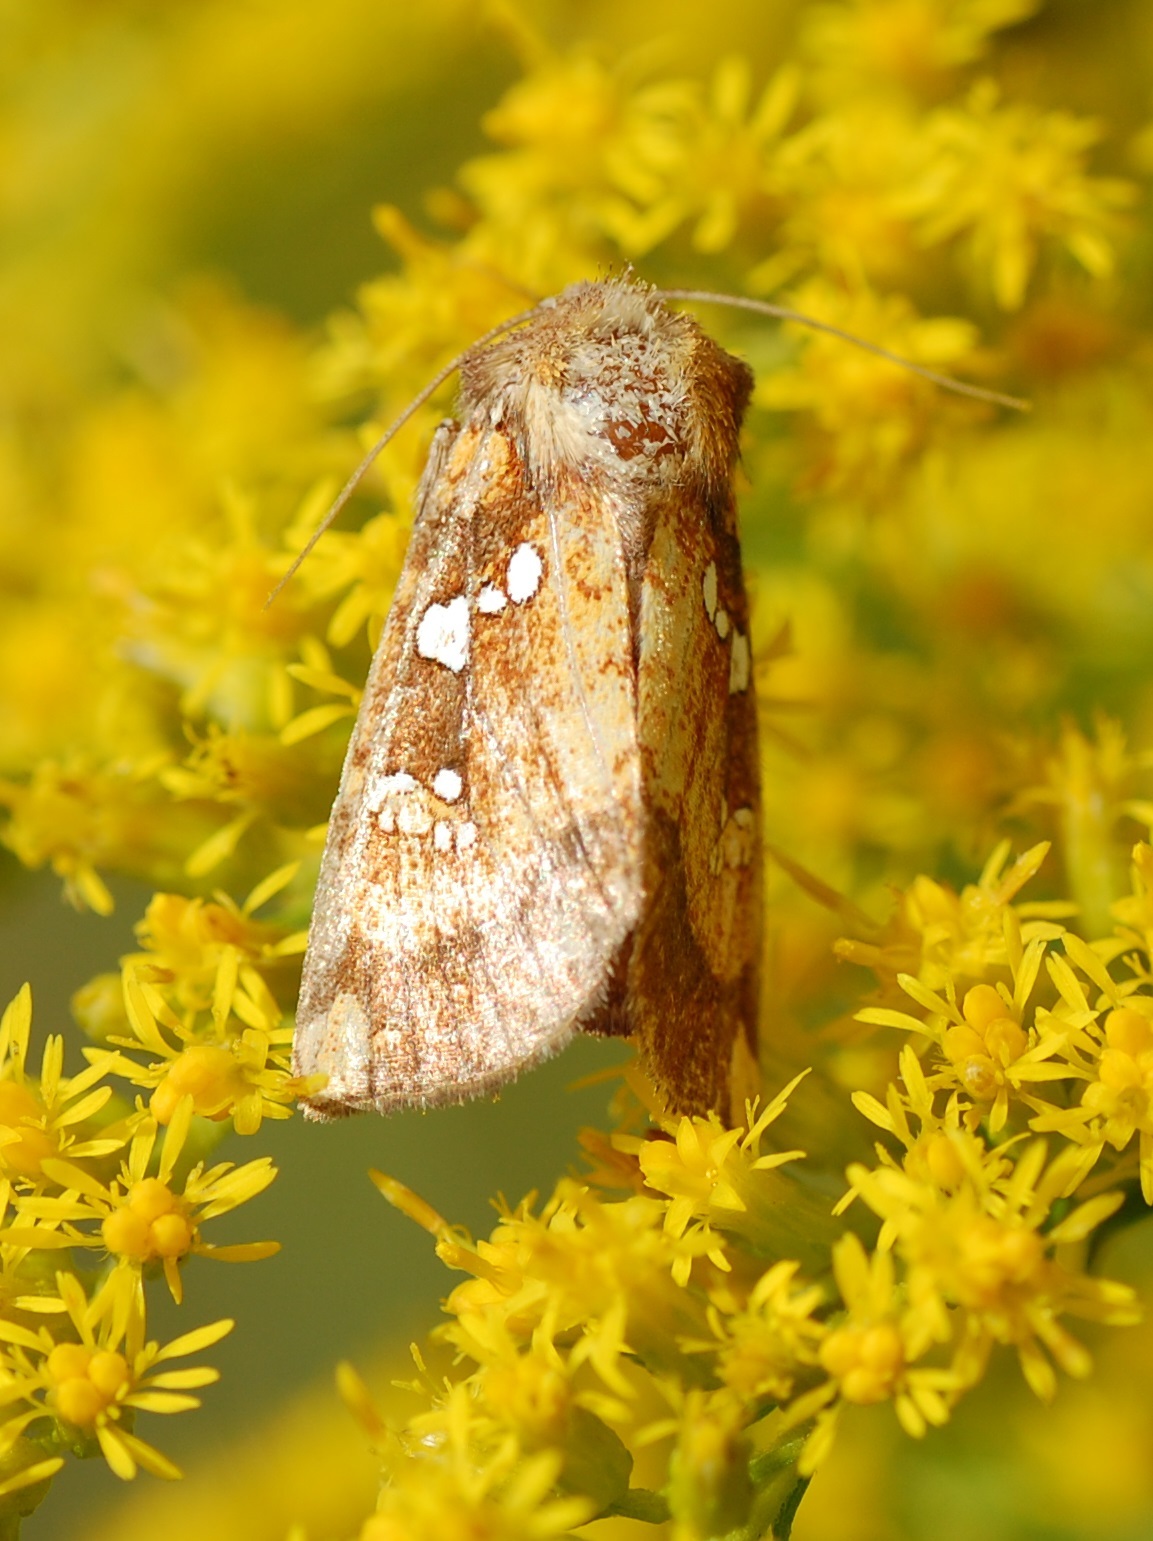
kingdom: Animalia
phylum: Arthropoda
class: Insecta
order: Lepidoptera
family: Noctuidae
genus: Papaipema
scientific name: Papaipema baptisiae
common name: Wild indigo borer moth
